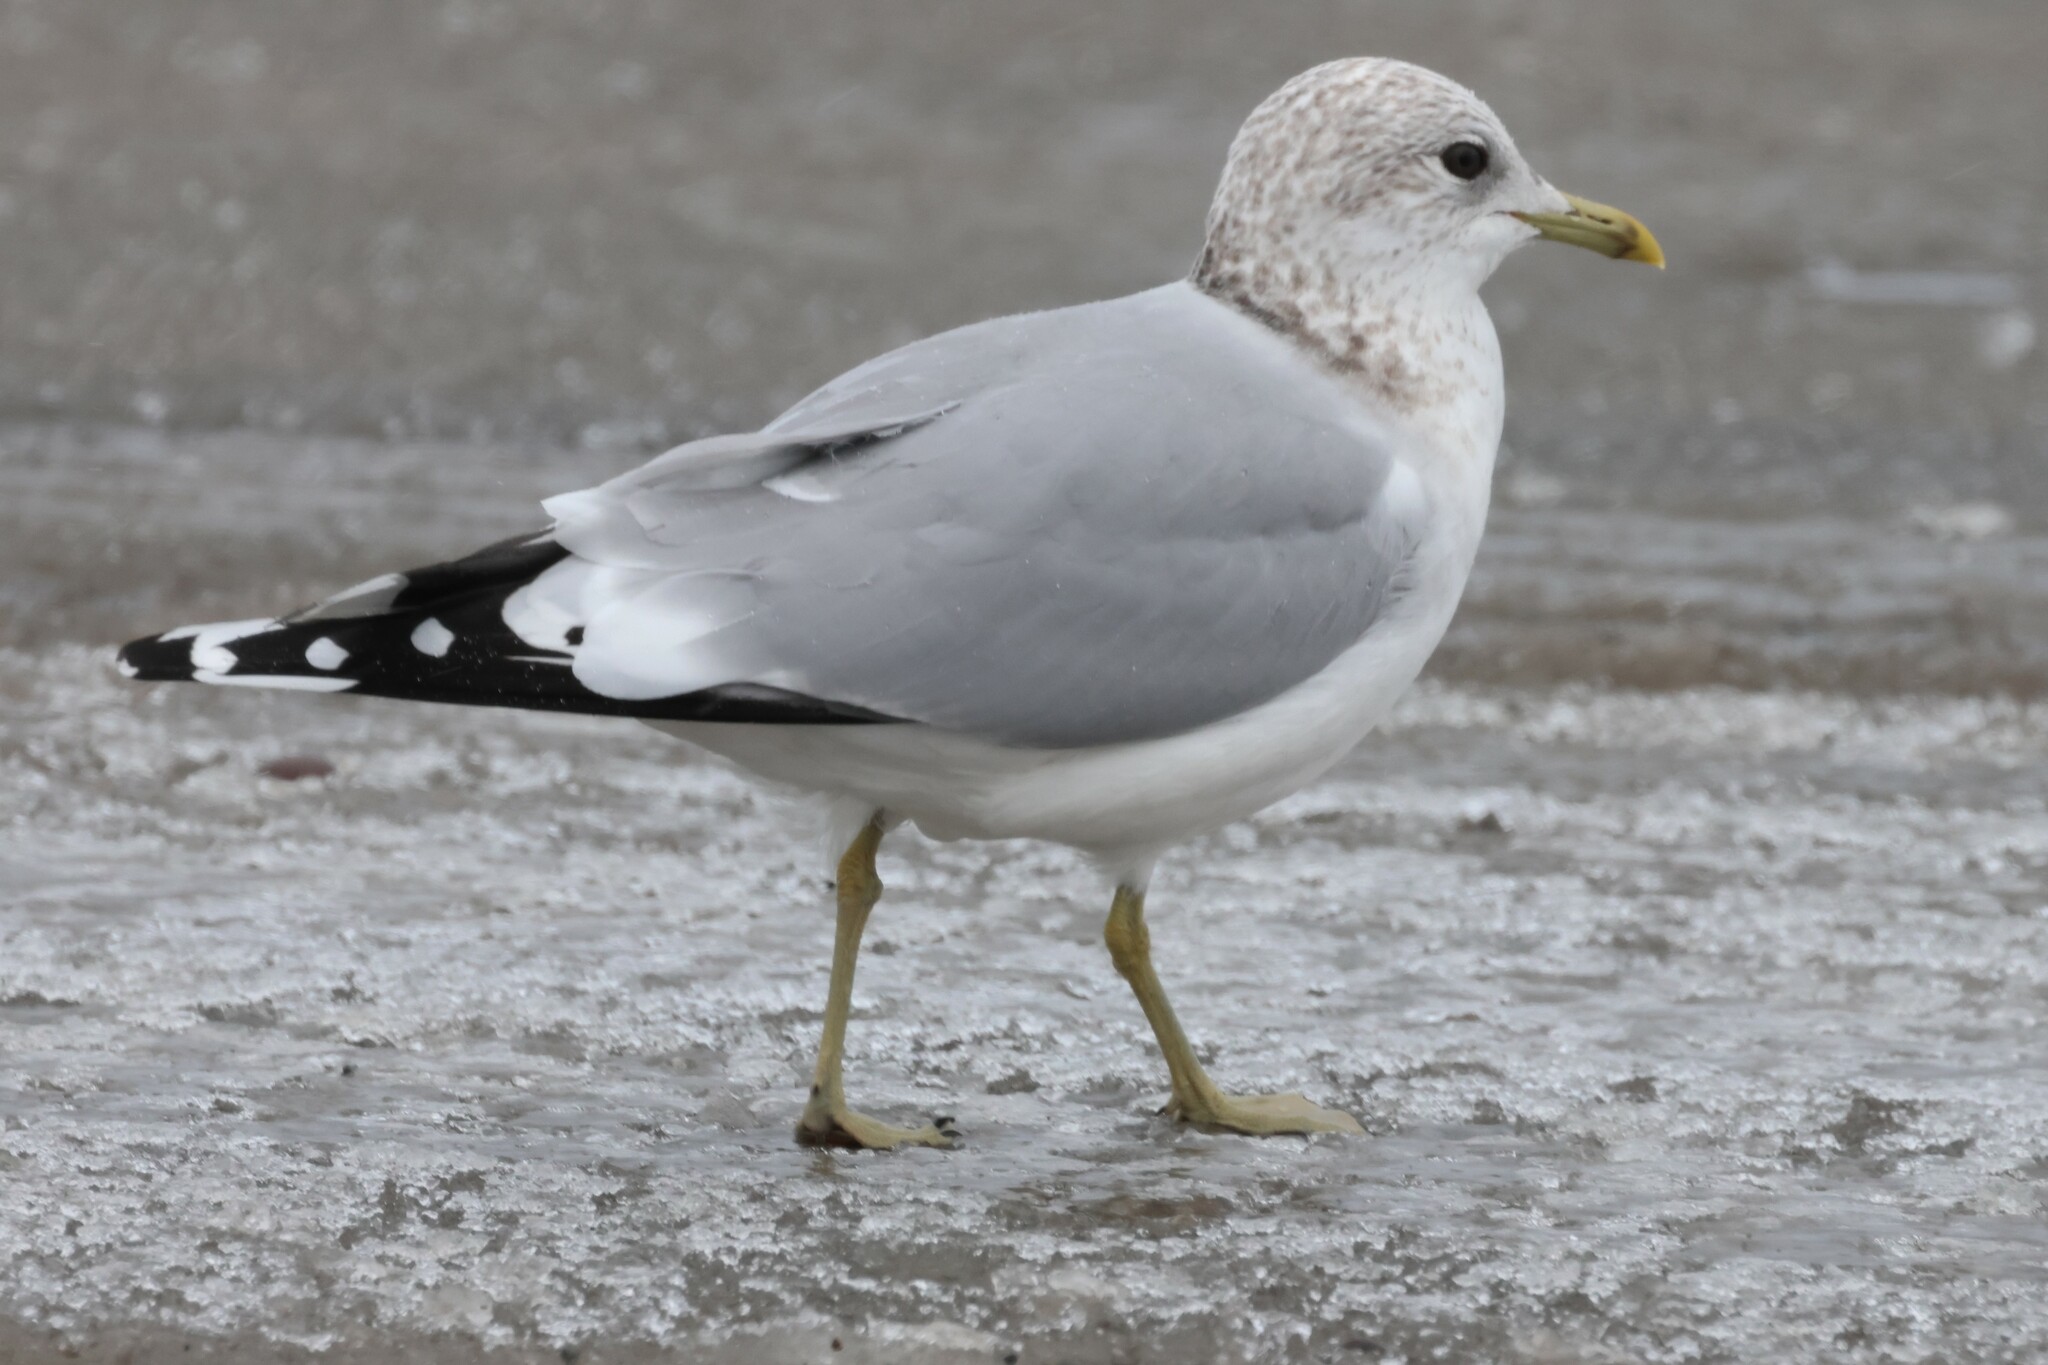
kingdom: Animalia
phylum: Chordata
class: Aves
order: Charadriiformes
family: Laridae
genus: Larus
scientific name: Larus canus
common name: Mew gull
